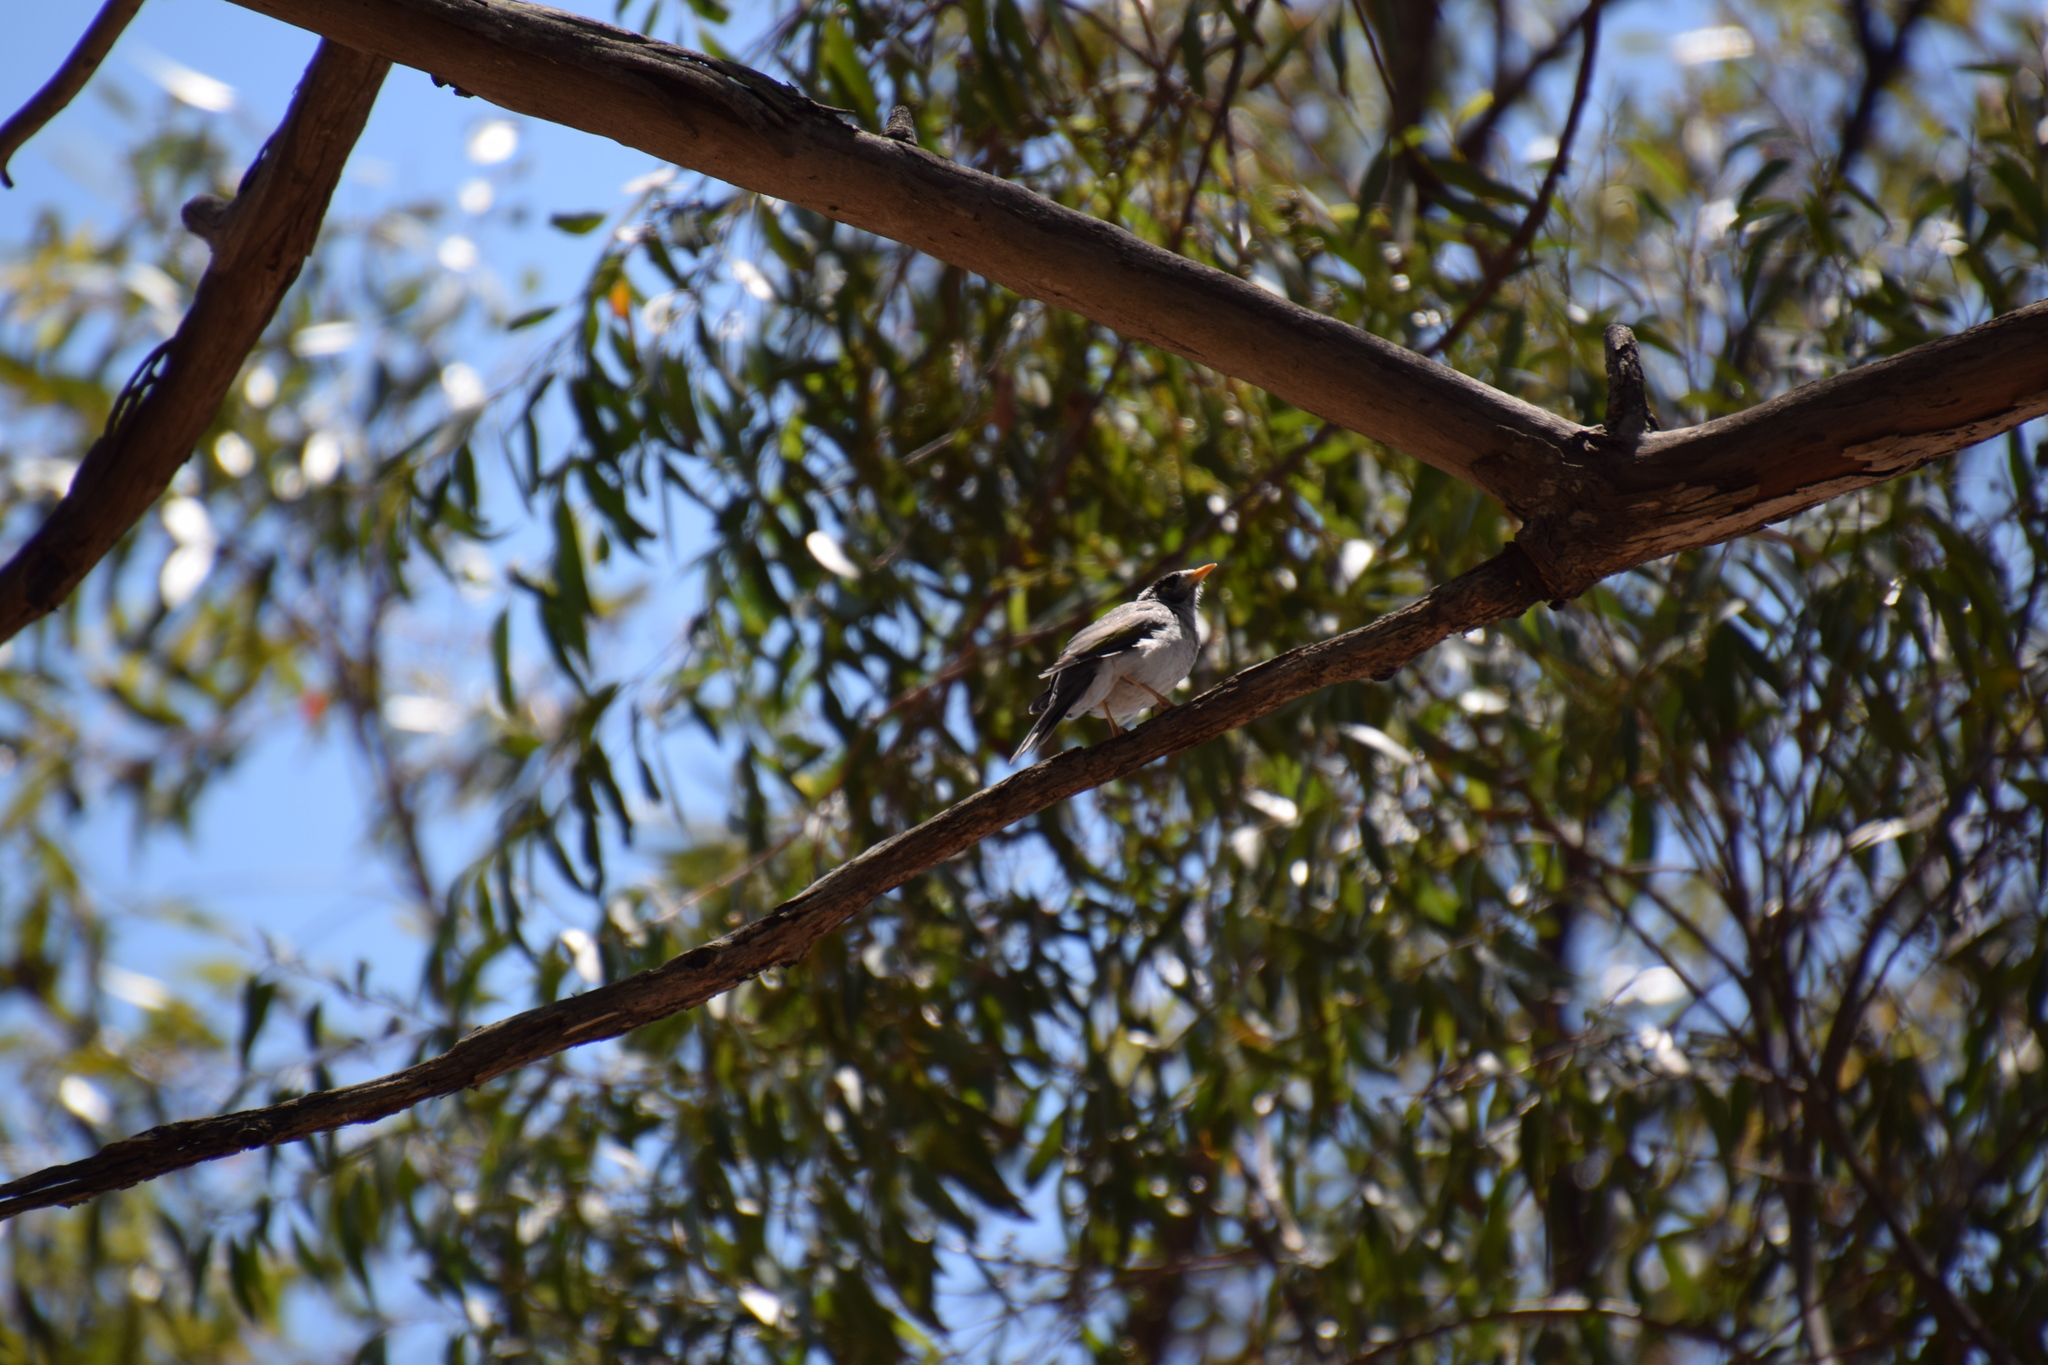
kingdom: Animalia
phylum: Chordata
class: Aves
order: Passeriformes
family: Meliphagidae
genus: Manorina
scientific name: Manorina melanocephala
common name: Noisy miner
